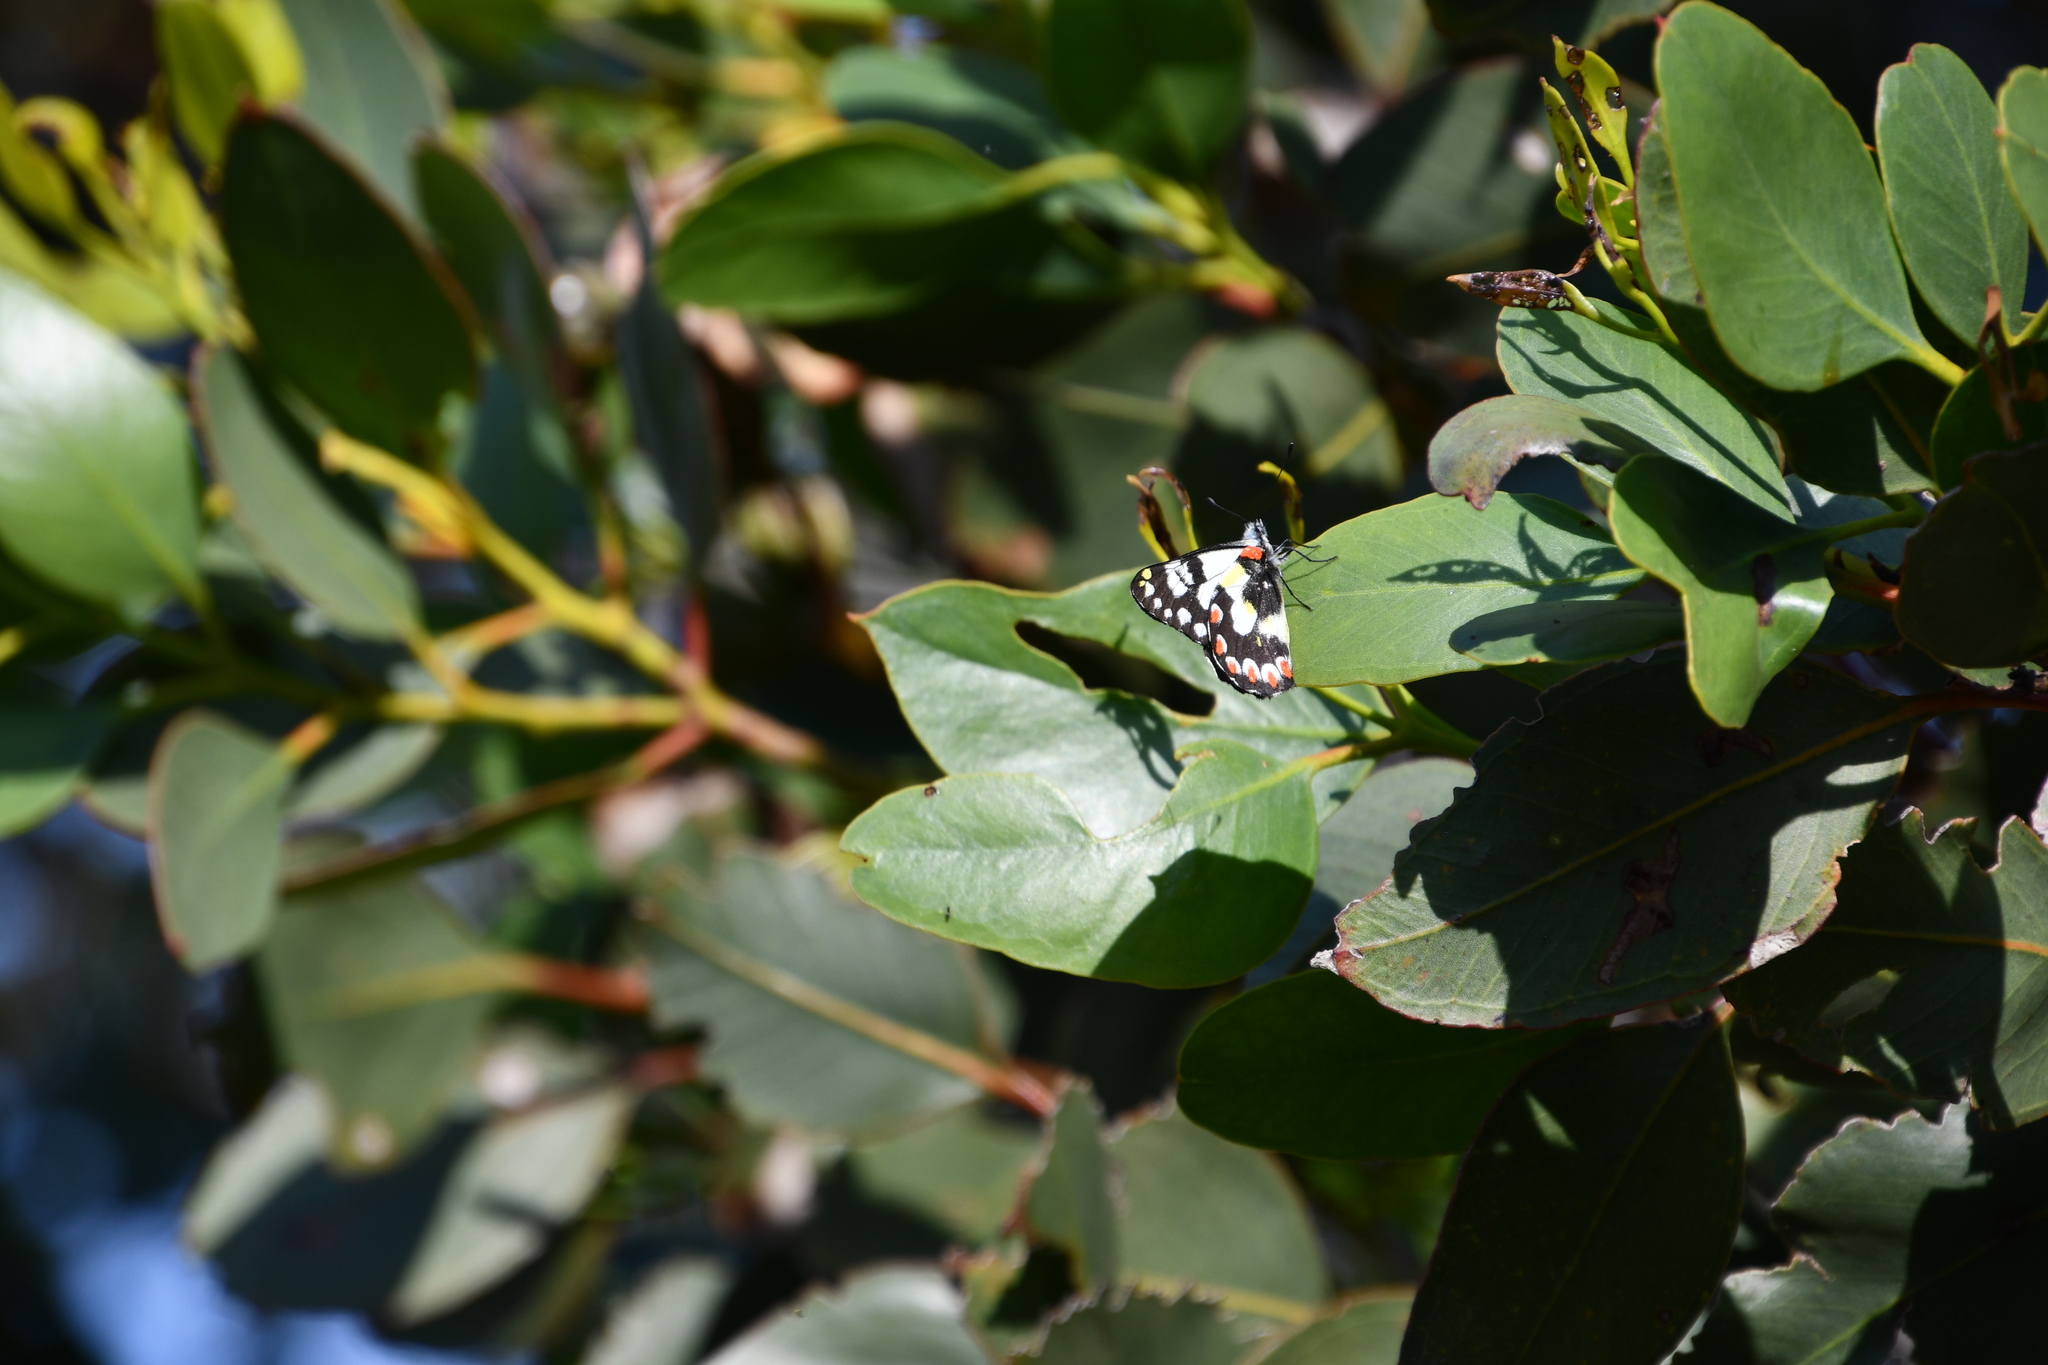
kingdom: Animalia
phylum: Arthropoda
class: Insecta
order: Lepidoptera
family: Pieridae
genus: Delias
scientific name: Delias aganippe
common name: Red-spotted jezebel
